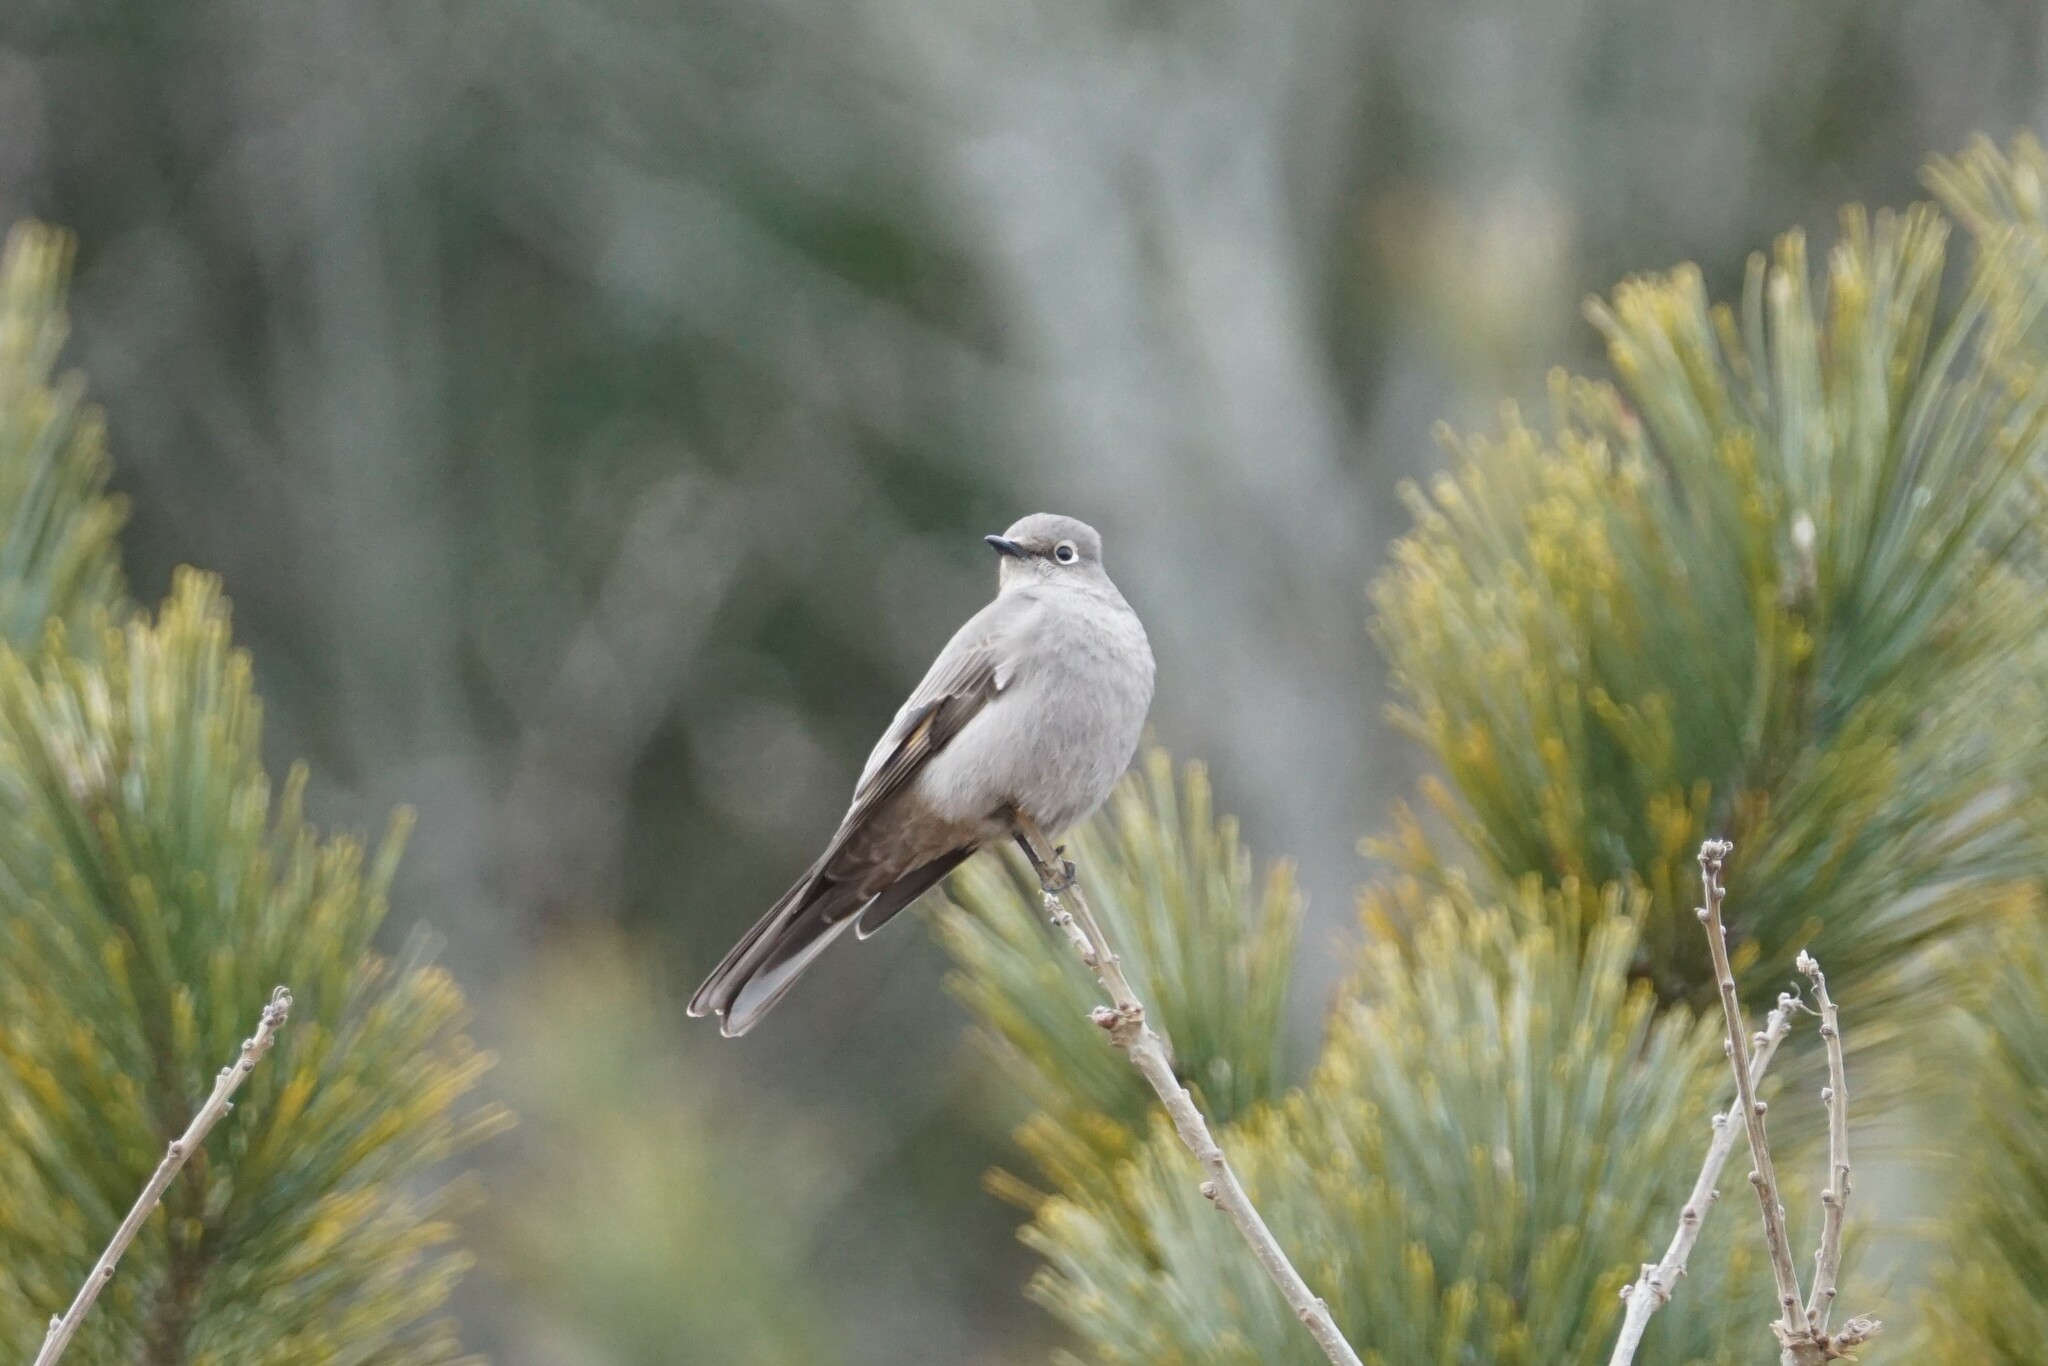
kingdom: Animalia
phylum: Chordata
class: Aves
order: Passeriformes
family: Turdidae
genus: Myadestes
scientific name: Myadestes townsendi
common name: Townsend's solitaire
